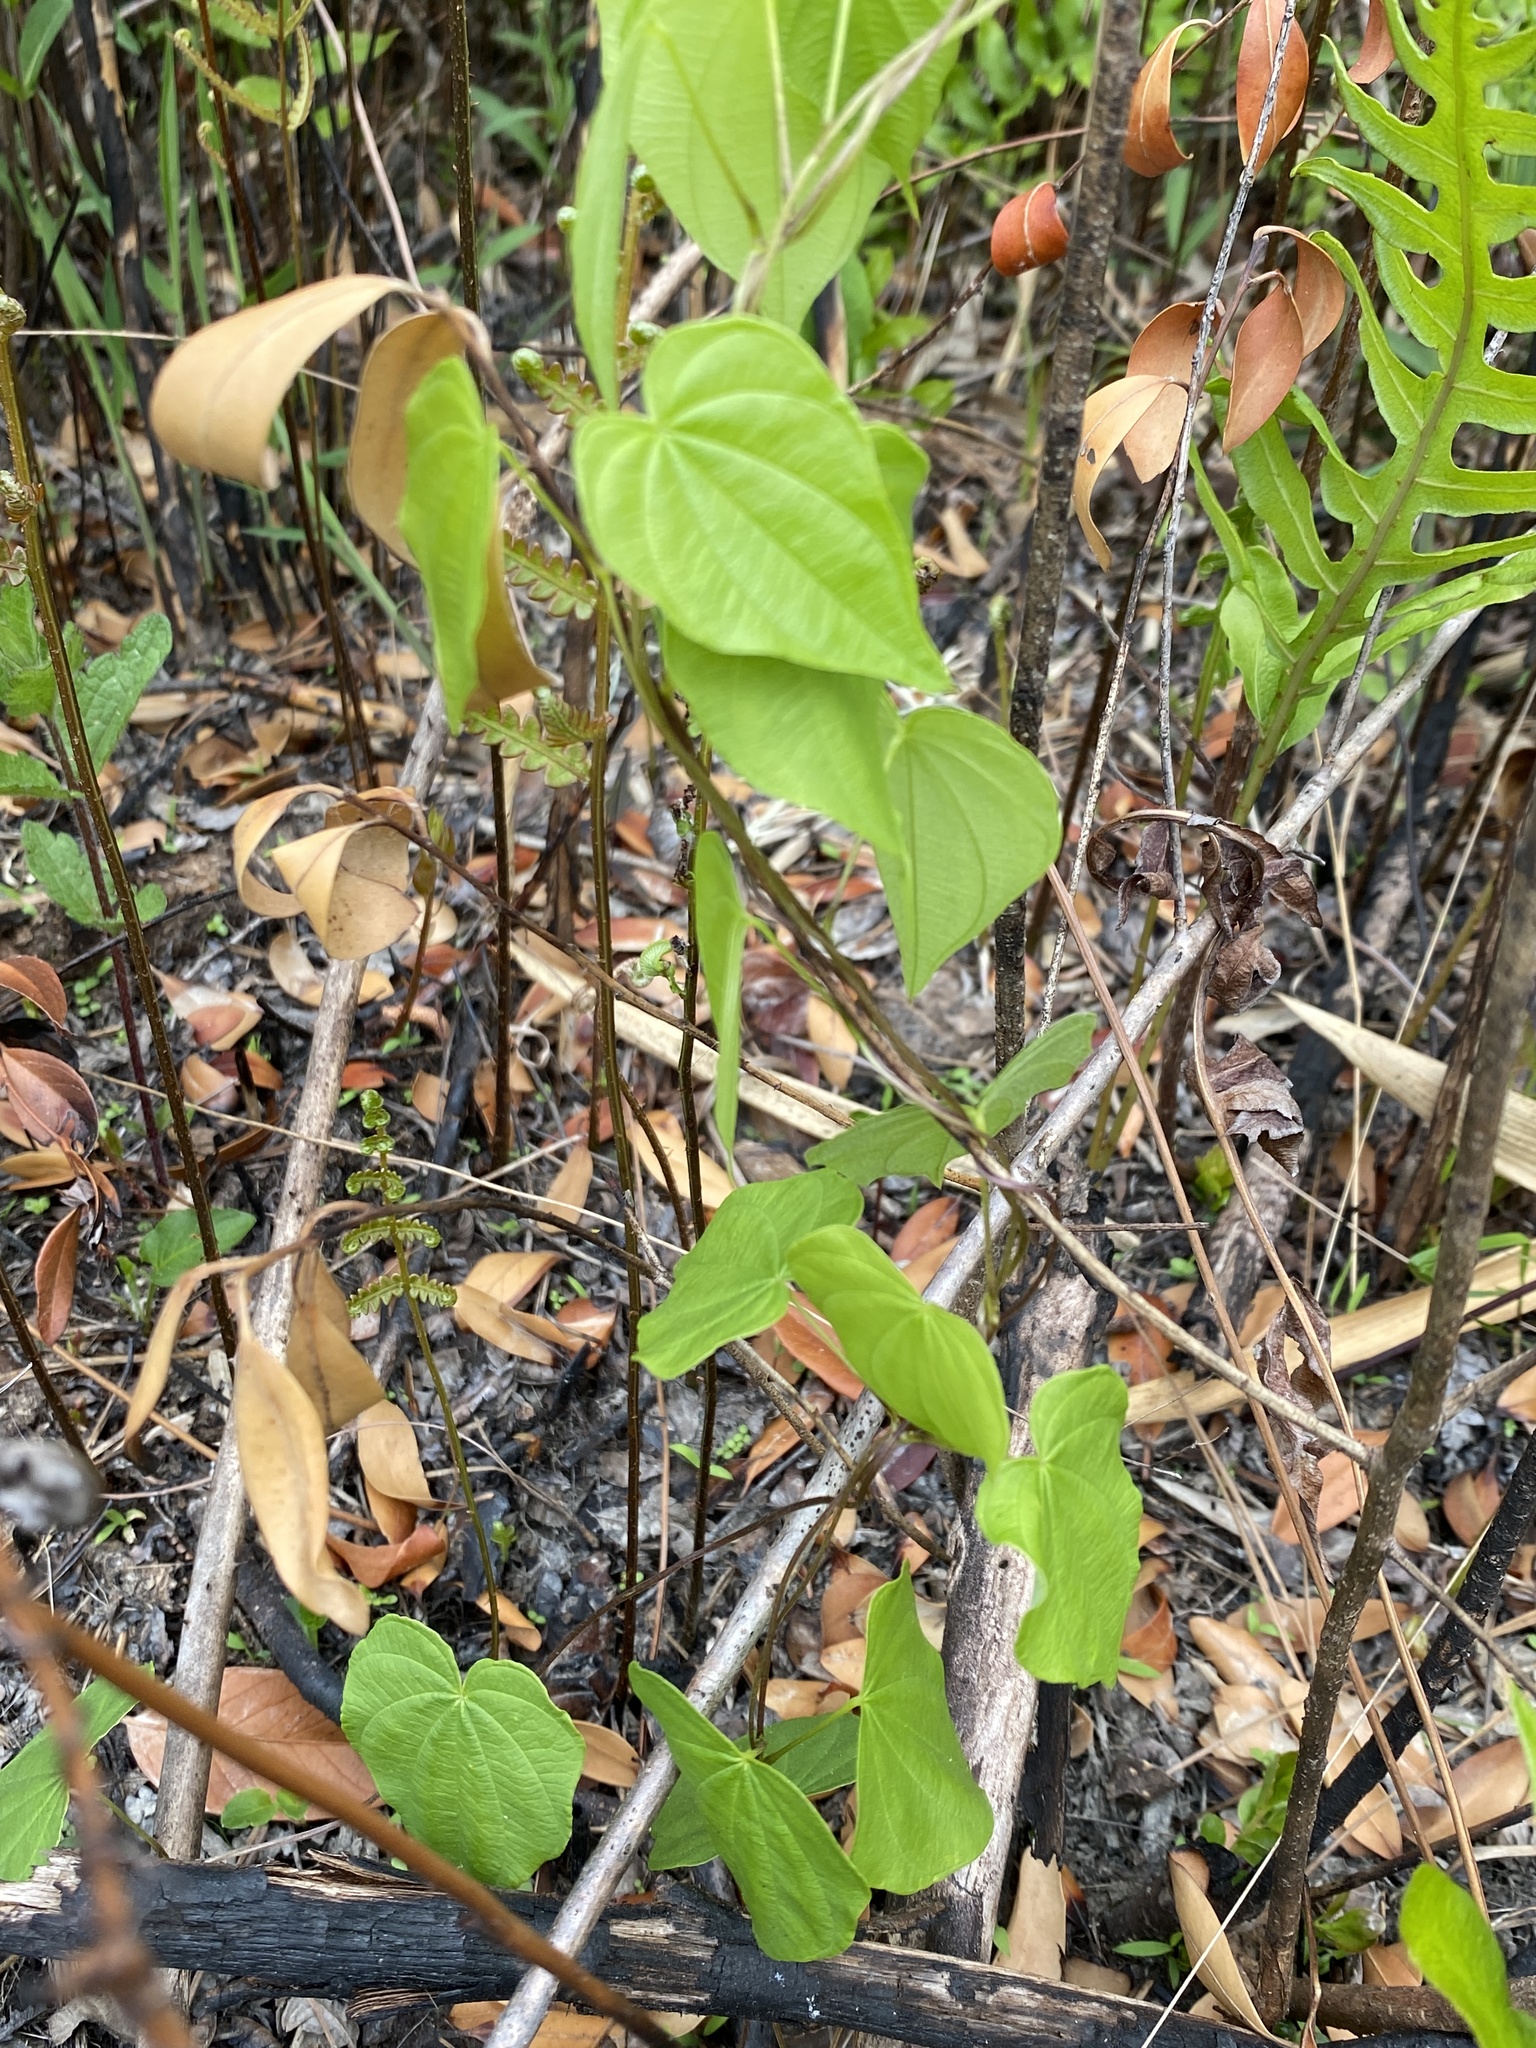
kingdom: Plantae
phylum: Tracheophyta
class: Liliopsida
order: Dioscoreales
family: Dioscoreaceae
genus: Dioscorea
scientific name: Dioscorea villosa
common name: Wild yam
